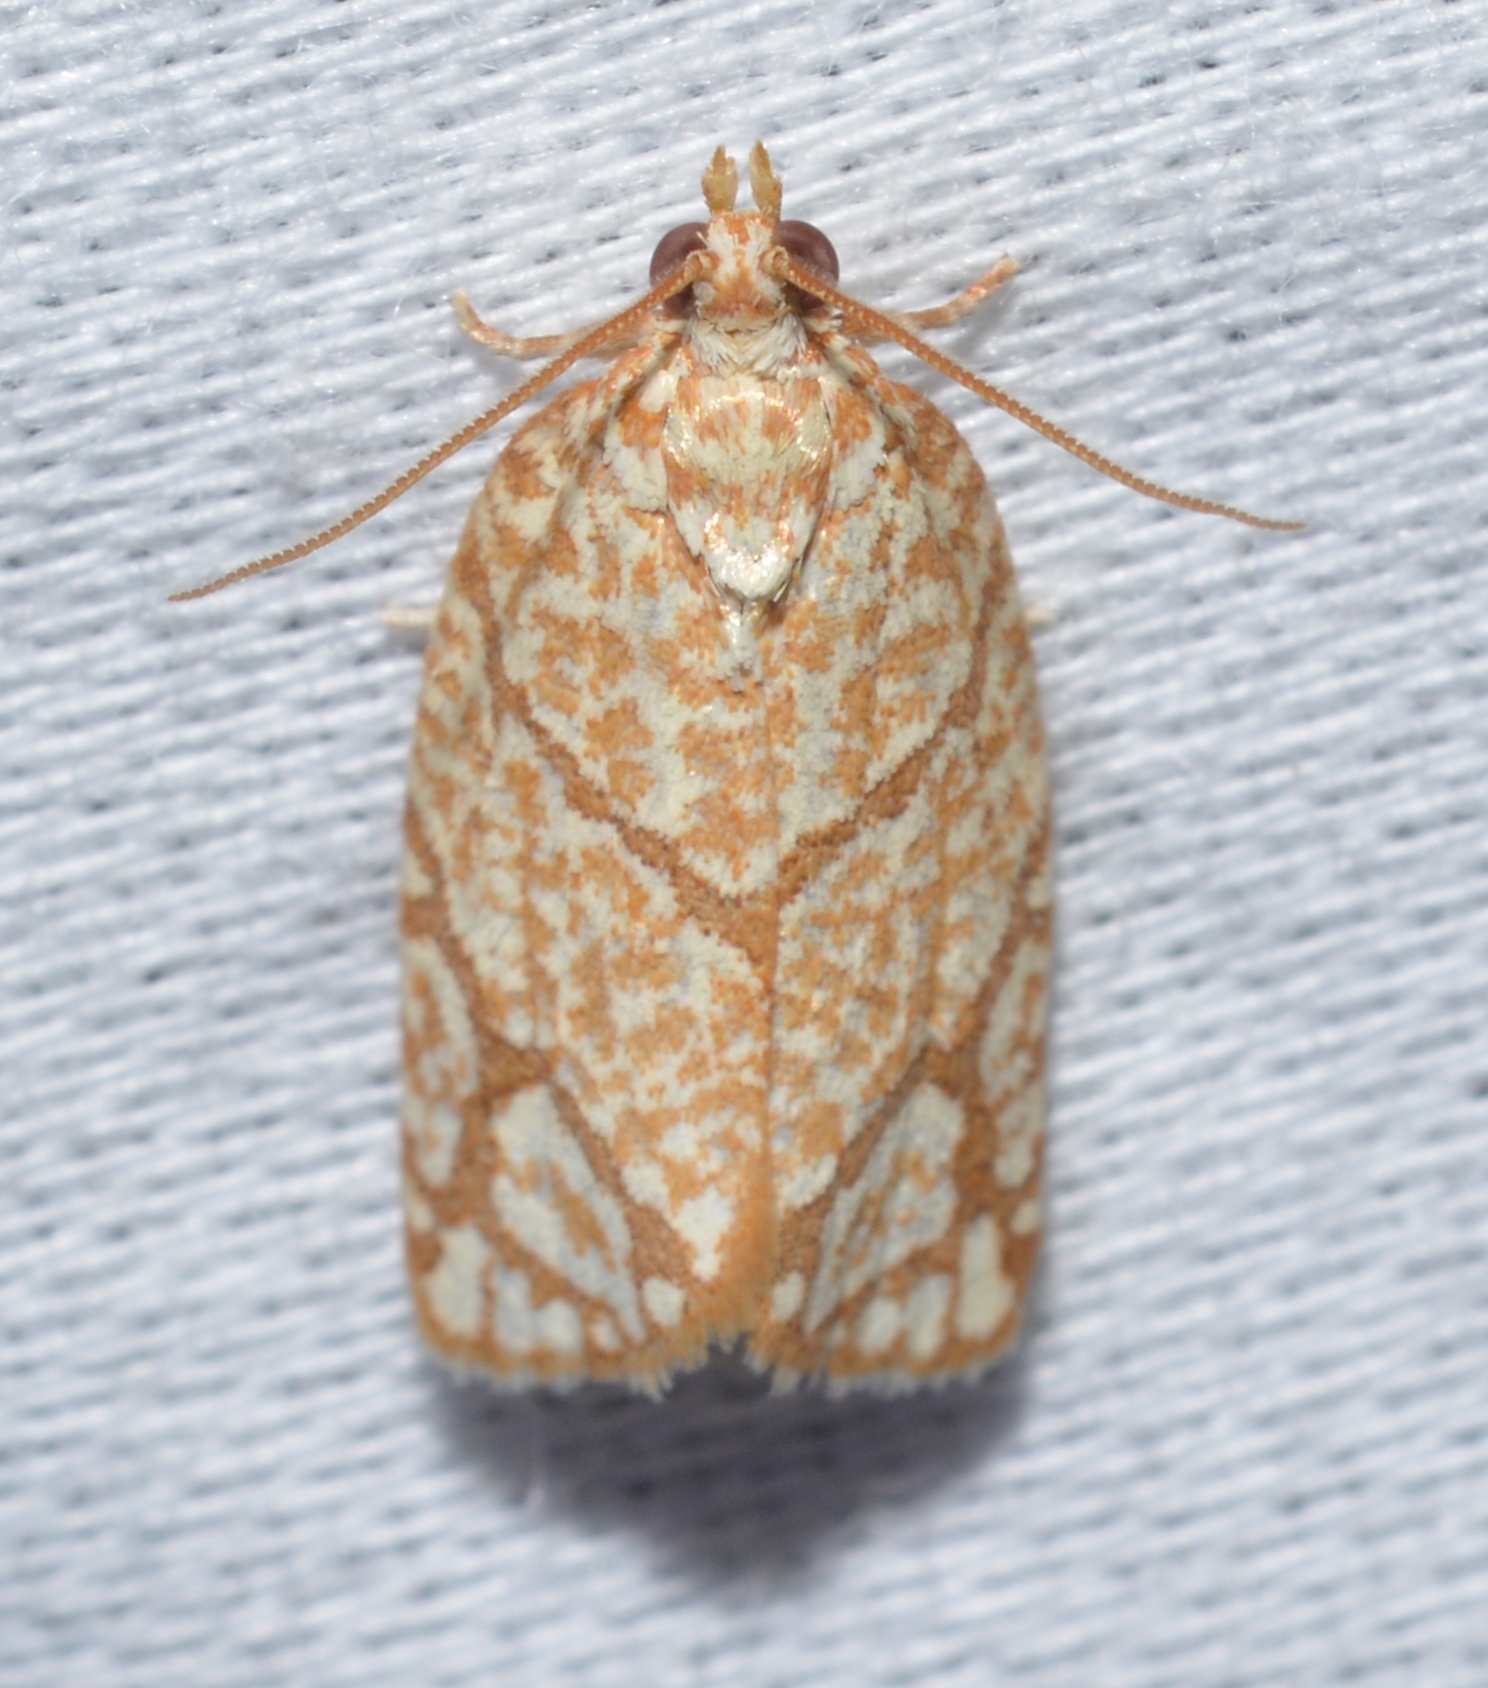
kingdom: Animalia
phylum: Arthropoda
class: Insecta
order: Lepidoptera
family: Tortricidae
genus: Argyrotaenia
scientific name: Argyrotaenia quercifoliana
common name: Yellow-winged oak leafroller moth
